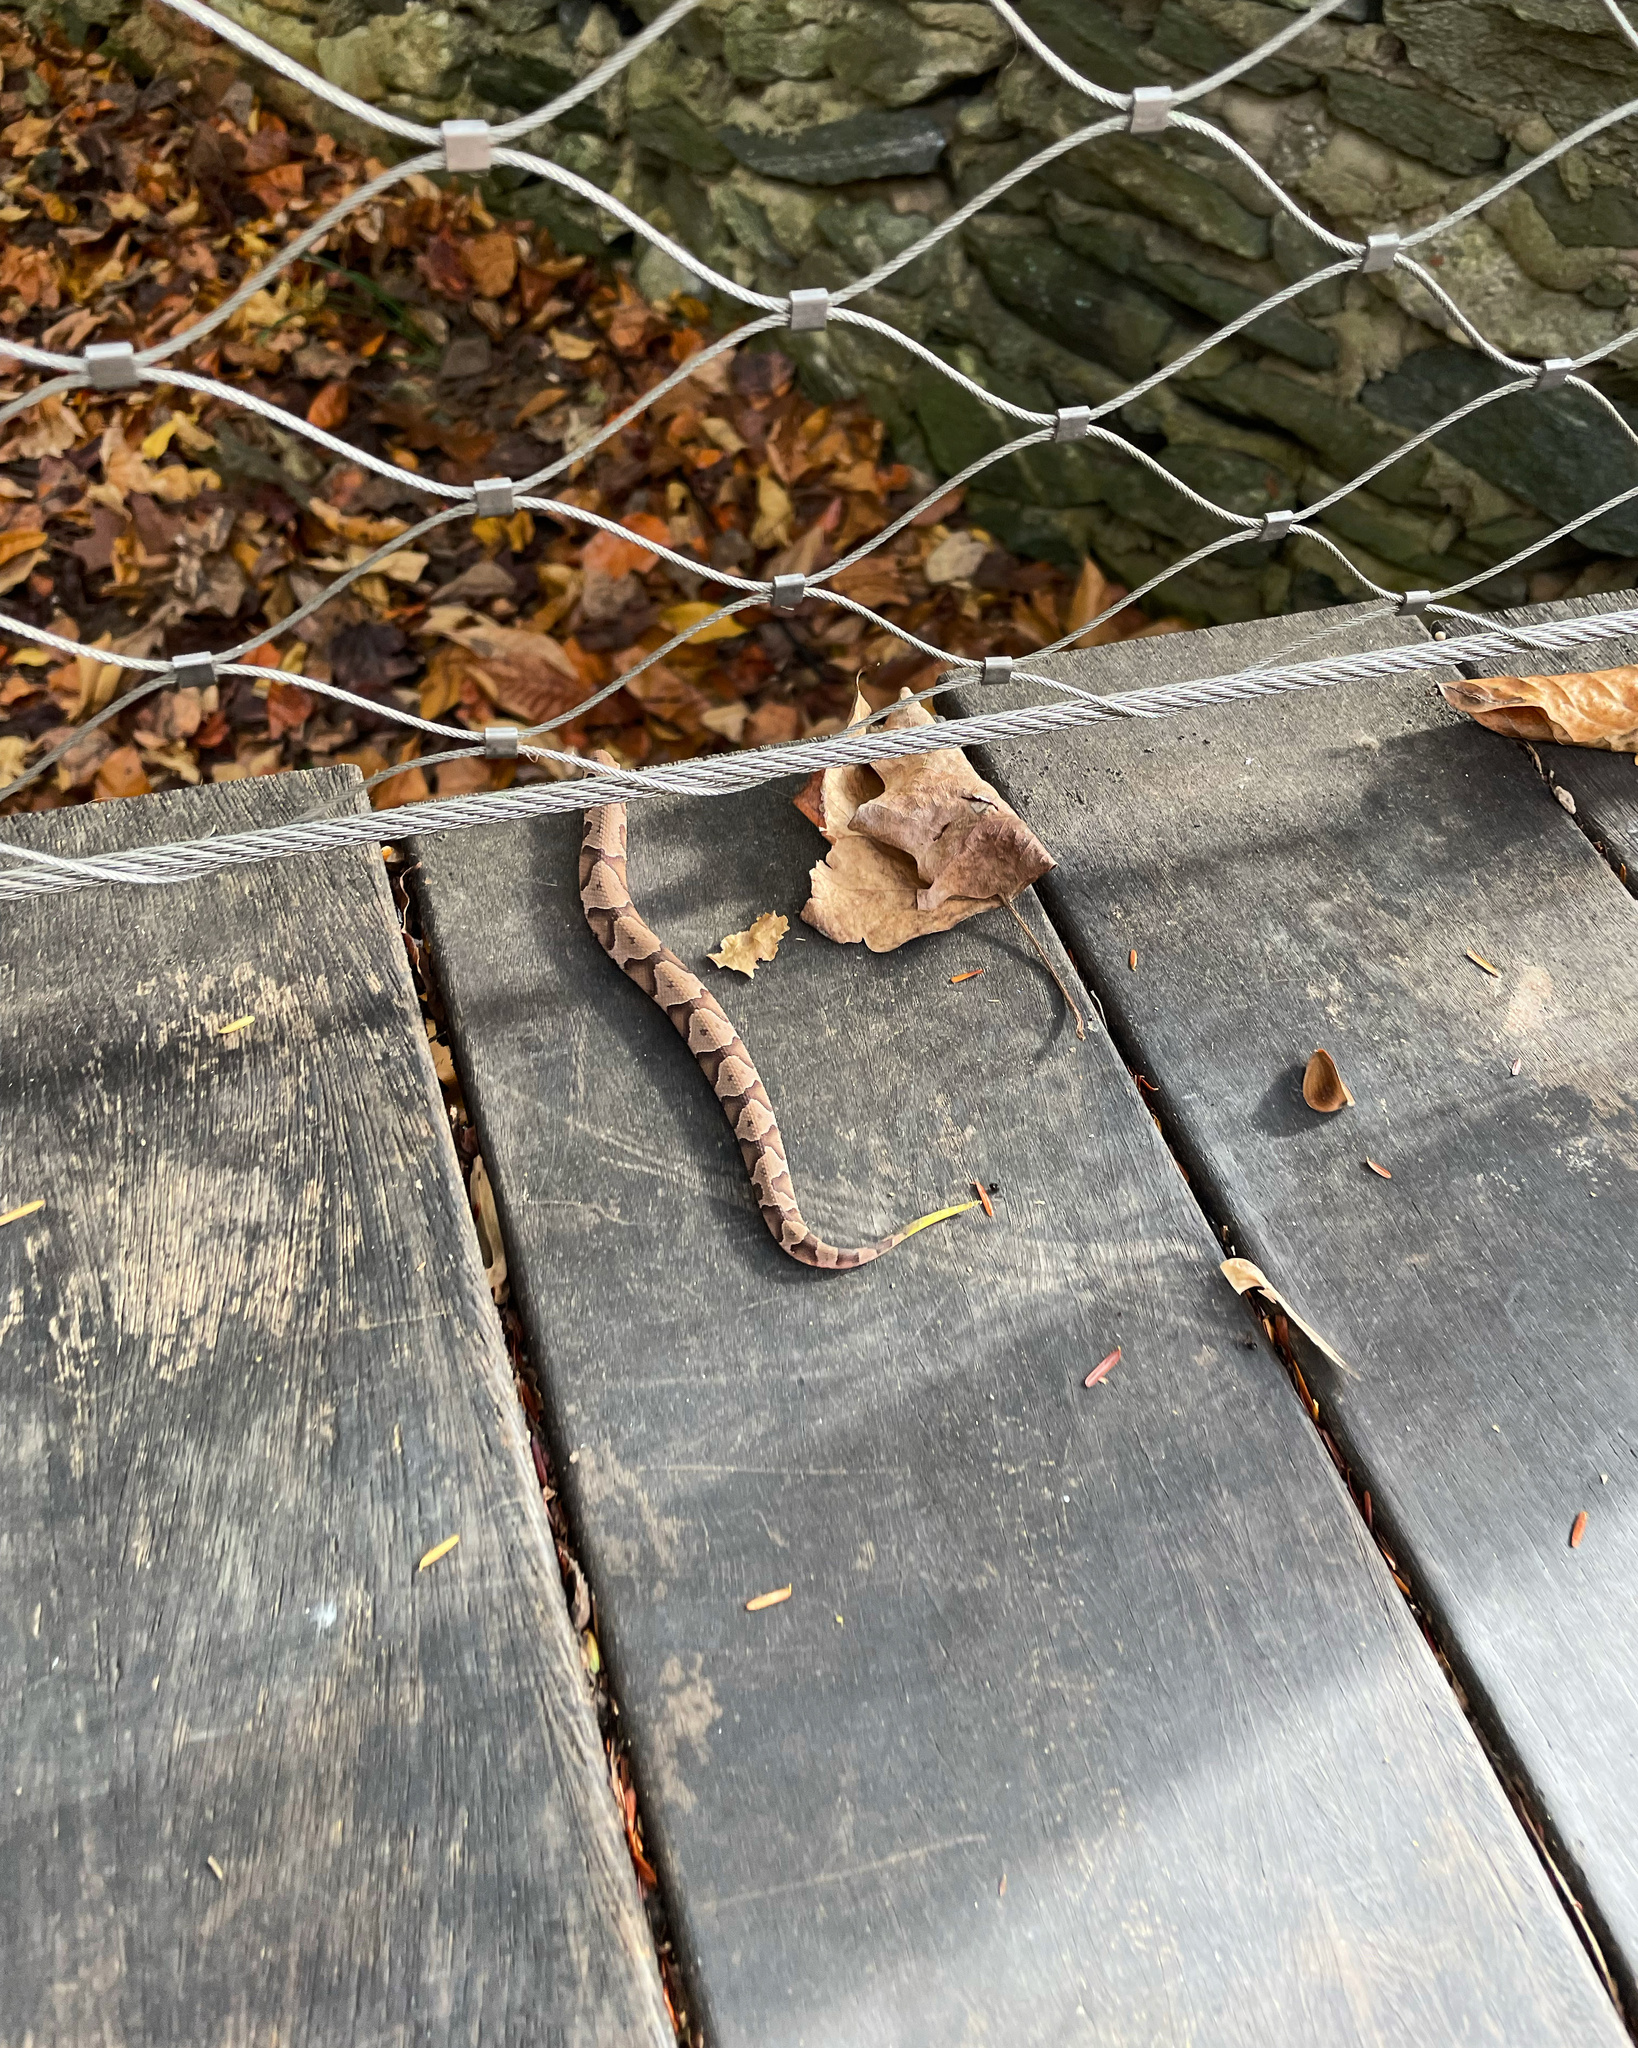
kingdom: Animalia
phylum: Chordata
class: Squamata
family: Viperidae
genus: Agkistrodon
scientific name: Agkistrodon contortrix
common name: Northern copperhead
